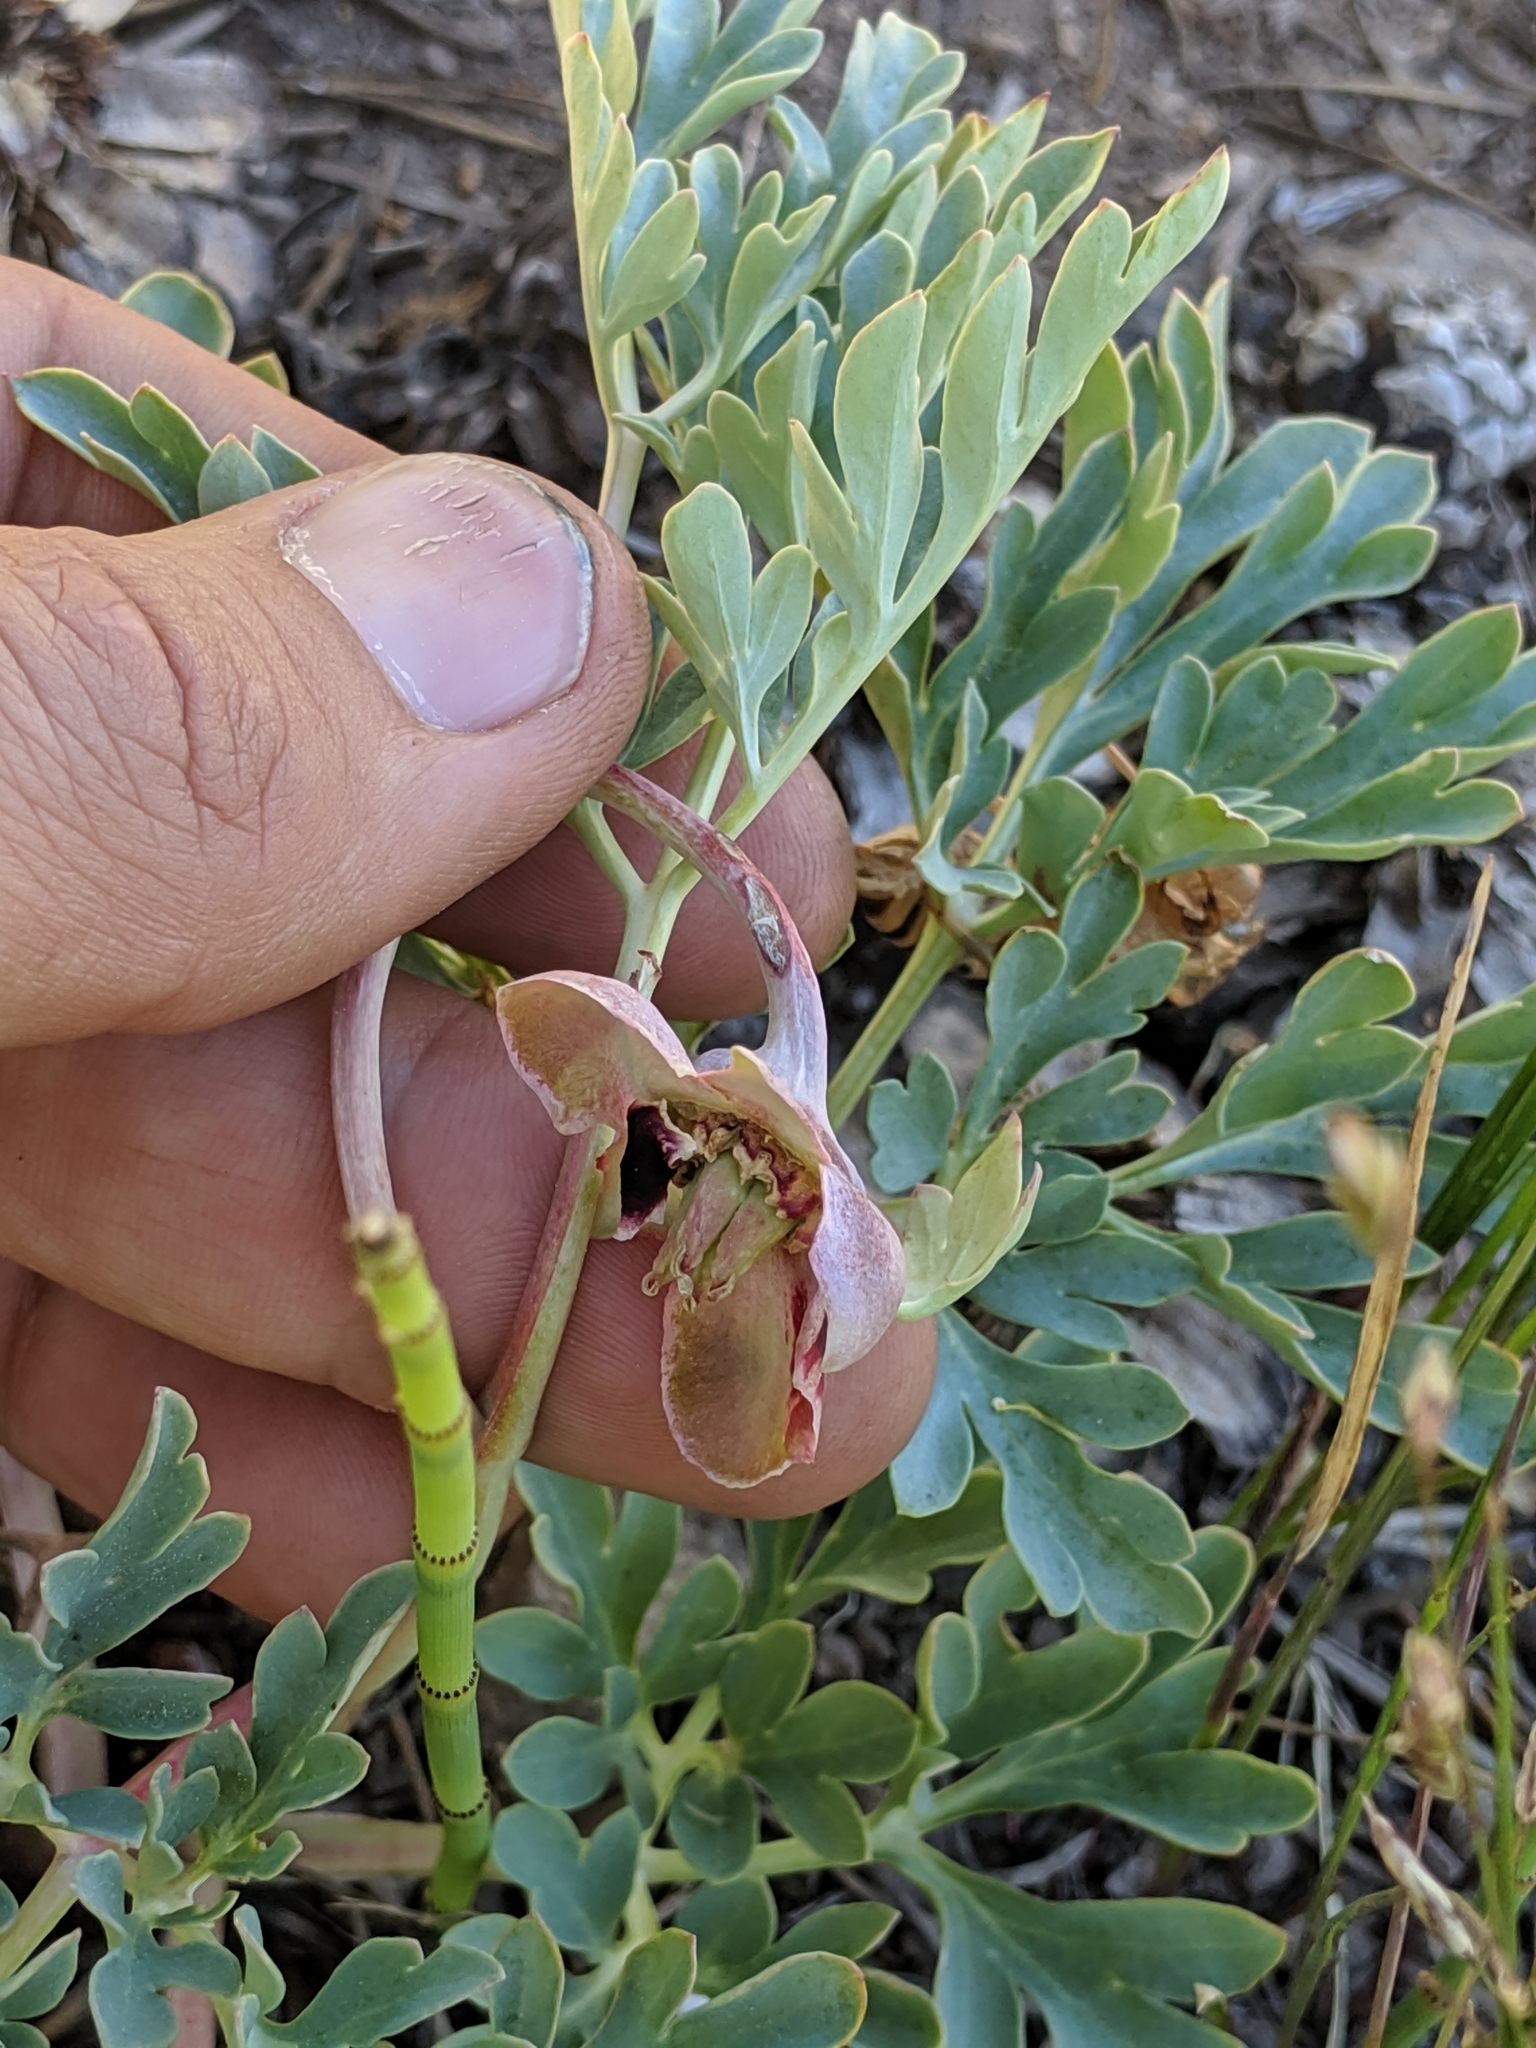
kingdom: Plantae
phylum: Tracheophyta
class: Magnoliopsida
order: Saxifragales
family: Paeoniaceae
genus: Paeonia
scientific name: Paeonia brownii
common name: Brown's peony
